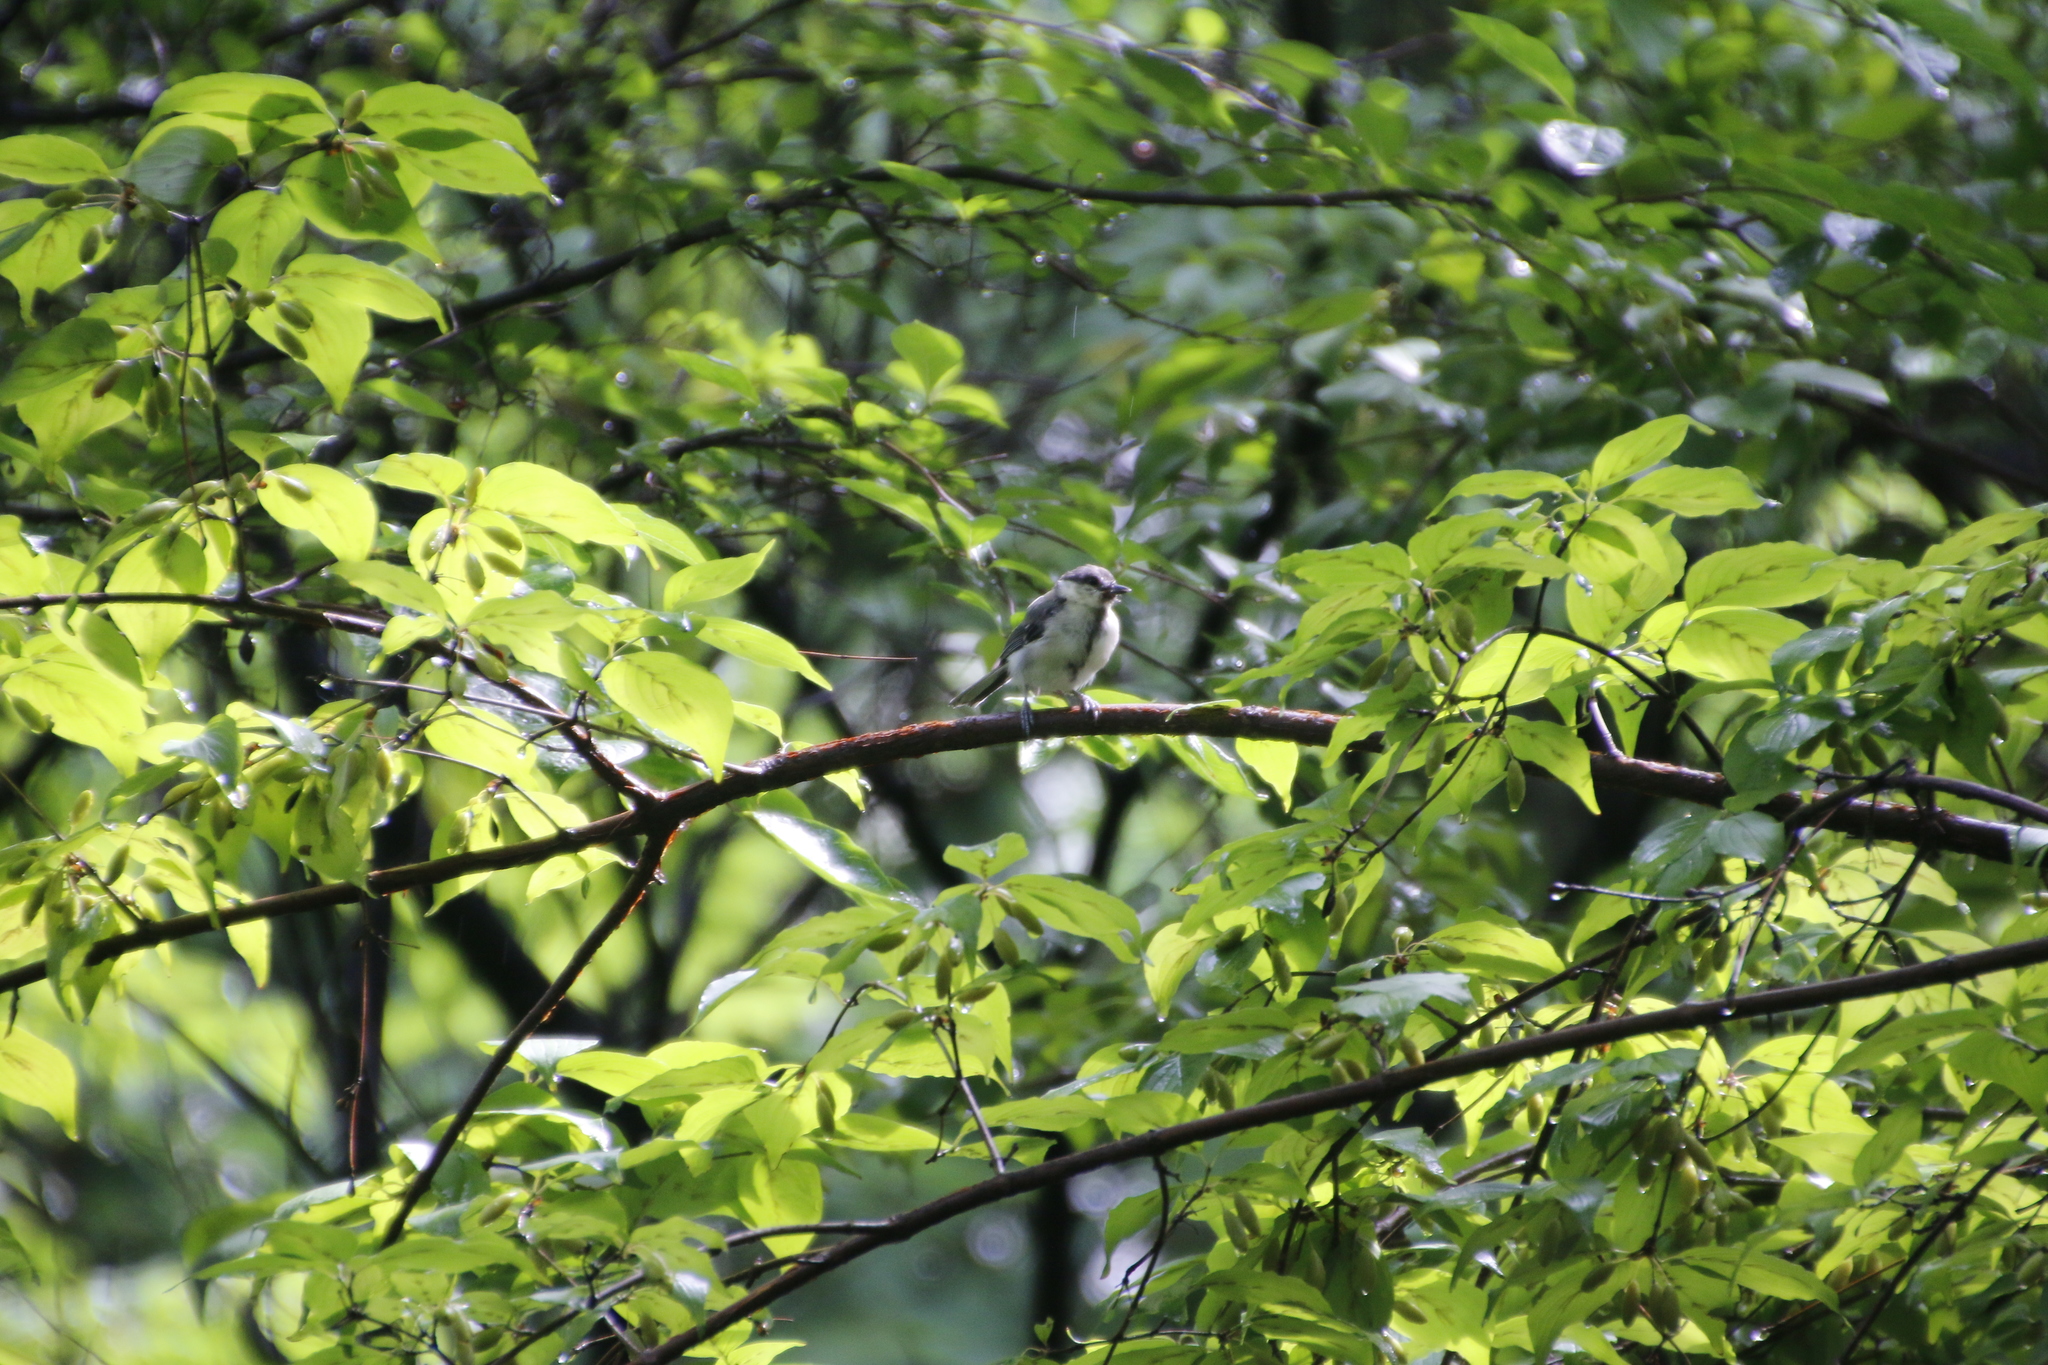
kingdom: Animalia
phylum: Chordata
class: Aves
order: Passeriformes
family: Paridae
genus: Parus
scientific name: Parus minor
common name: Japanese tit
